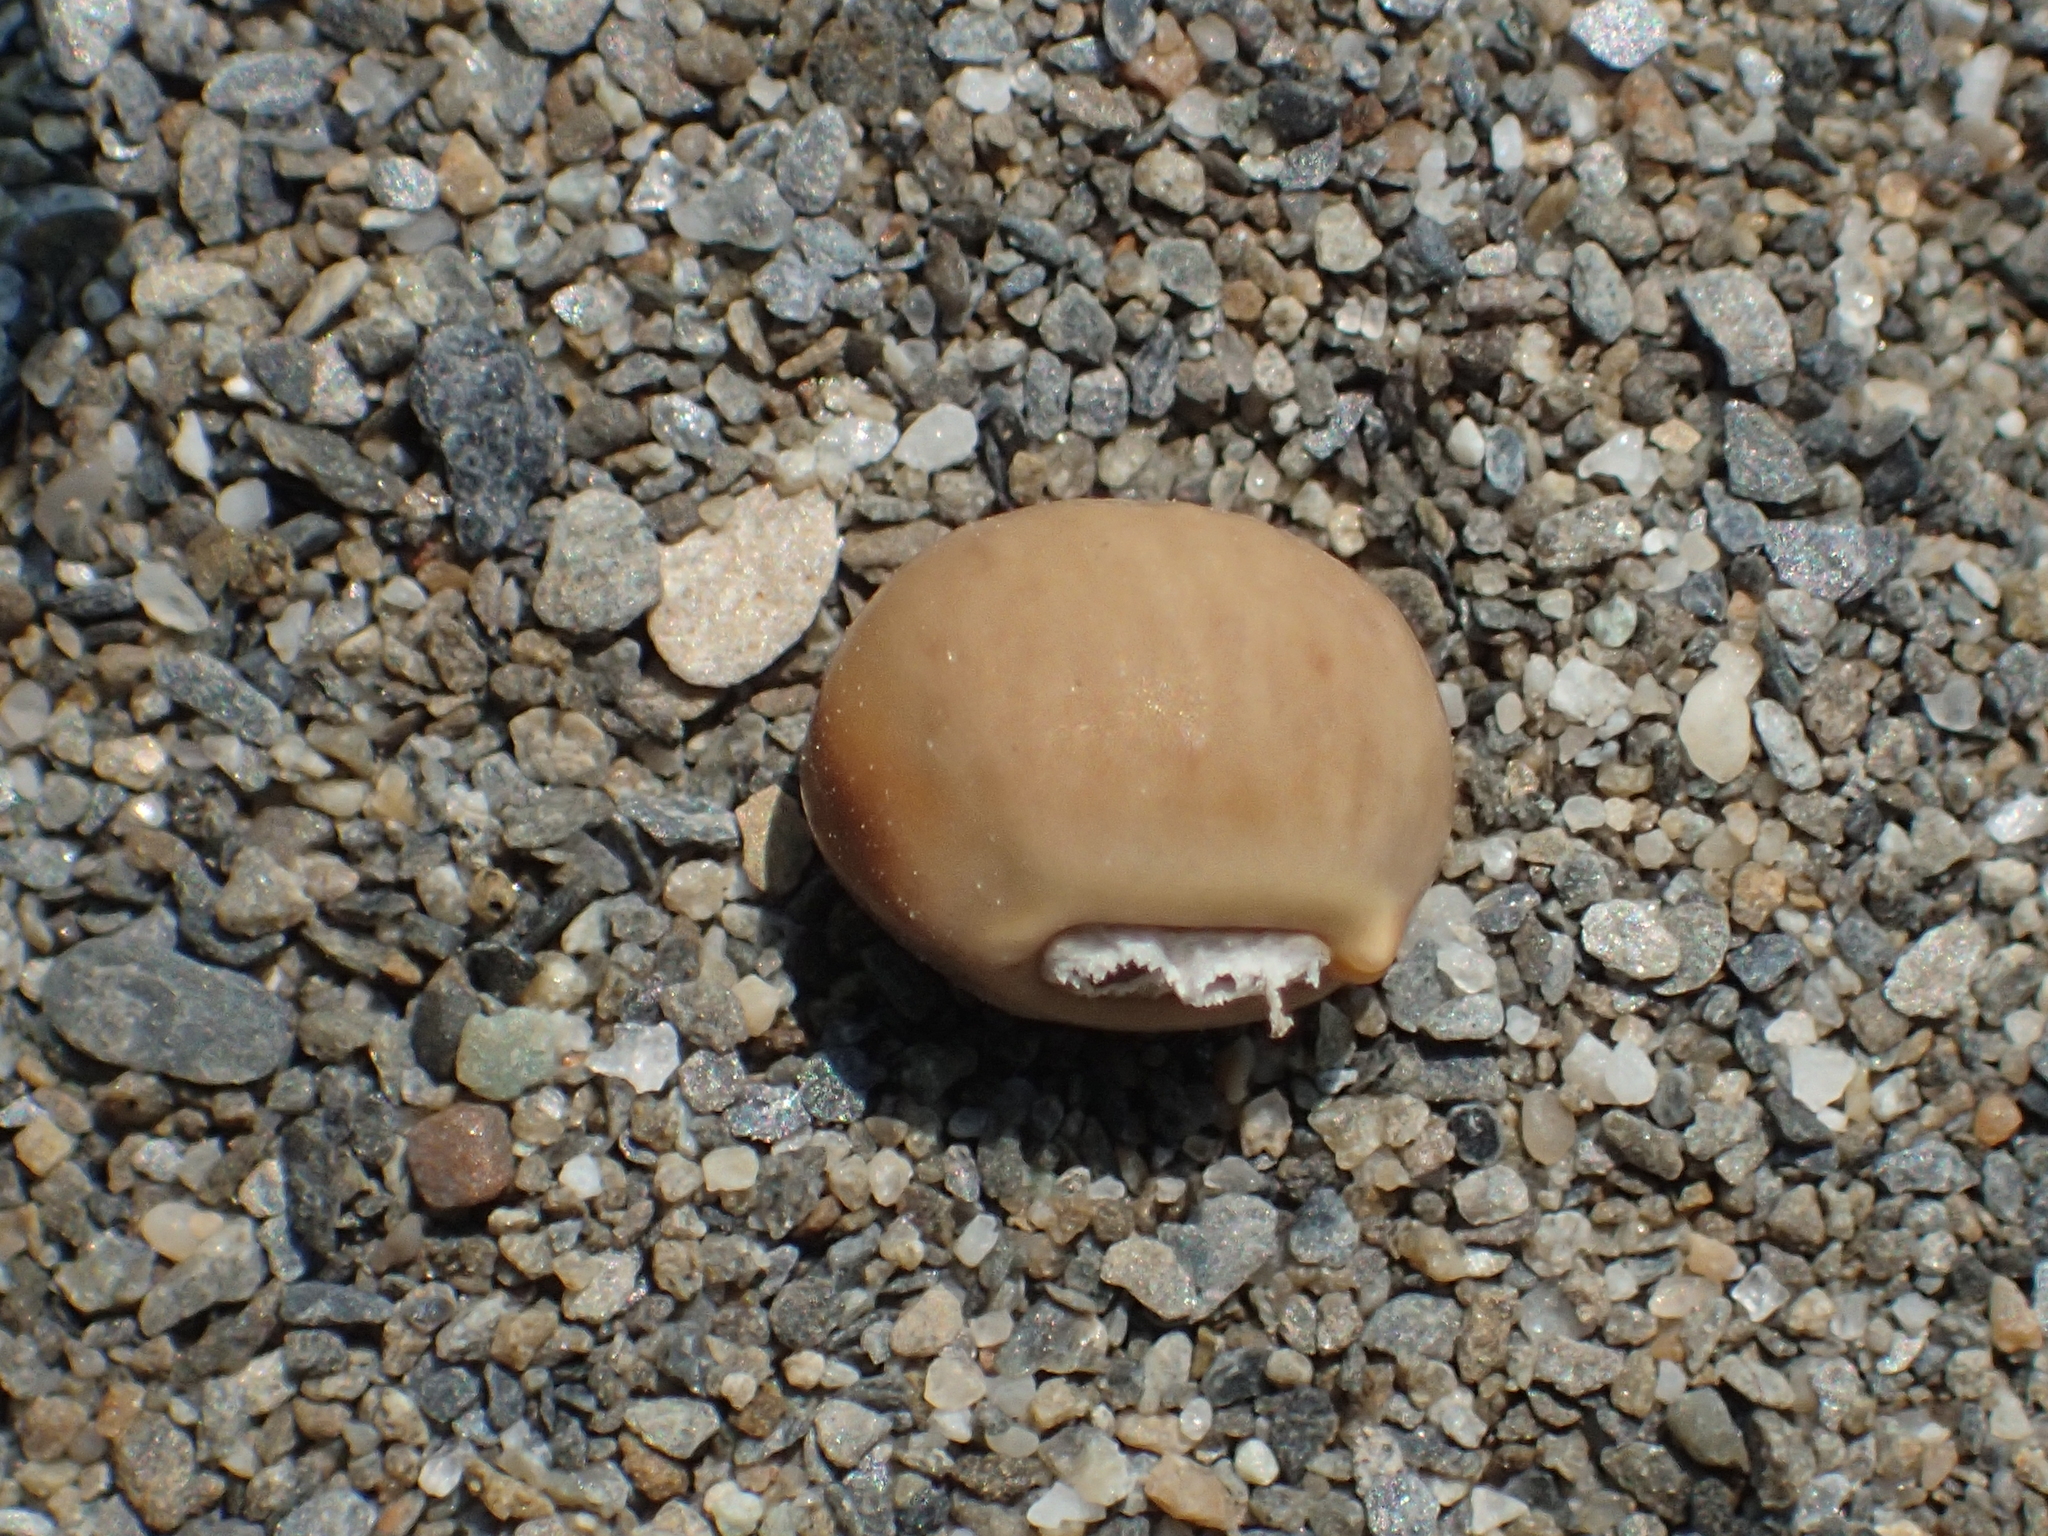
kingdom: Plantae
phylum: Tracheophyta
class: Magnoliopsida
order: Fabales
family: Fabaceae
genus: Vigna
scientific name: Vigna marina
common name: Dune-bean
